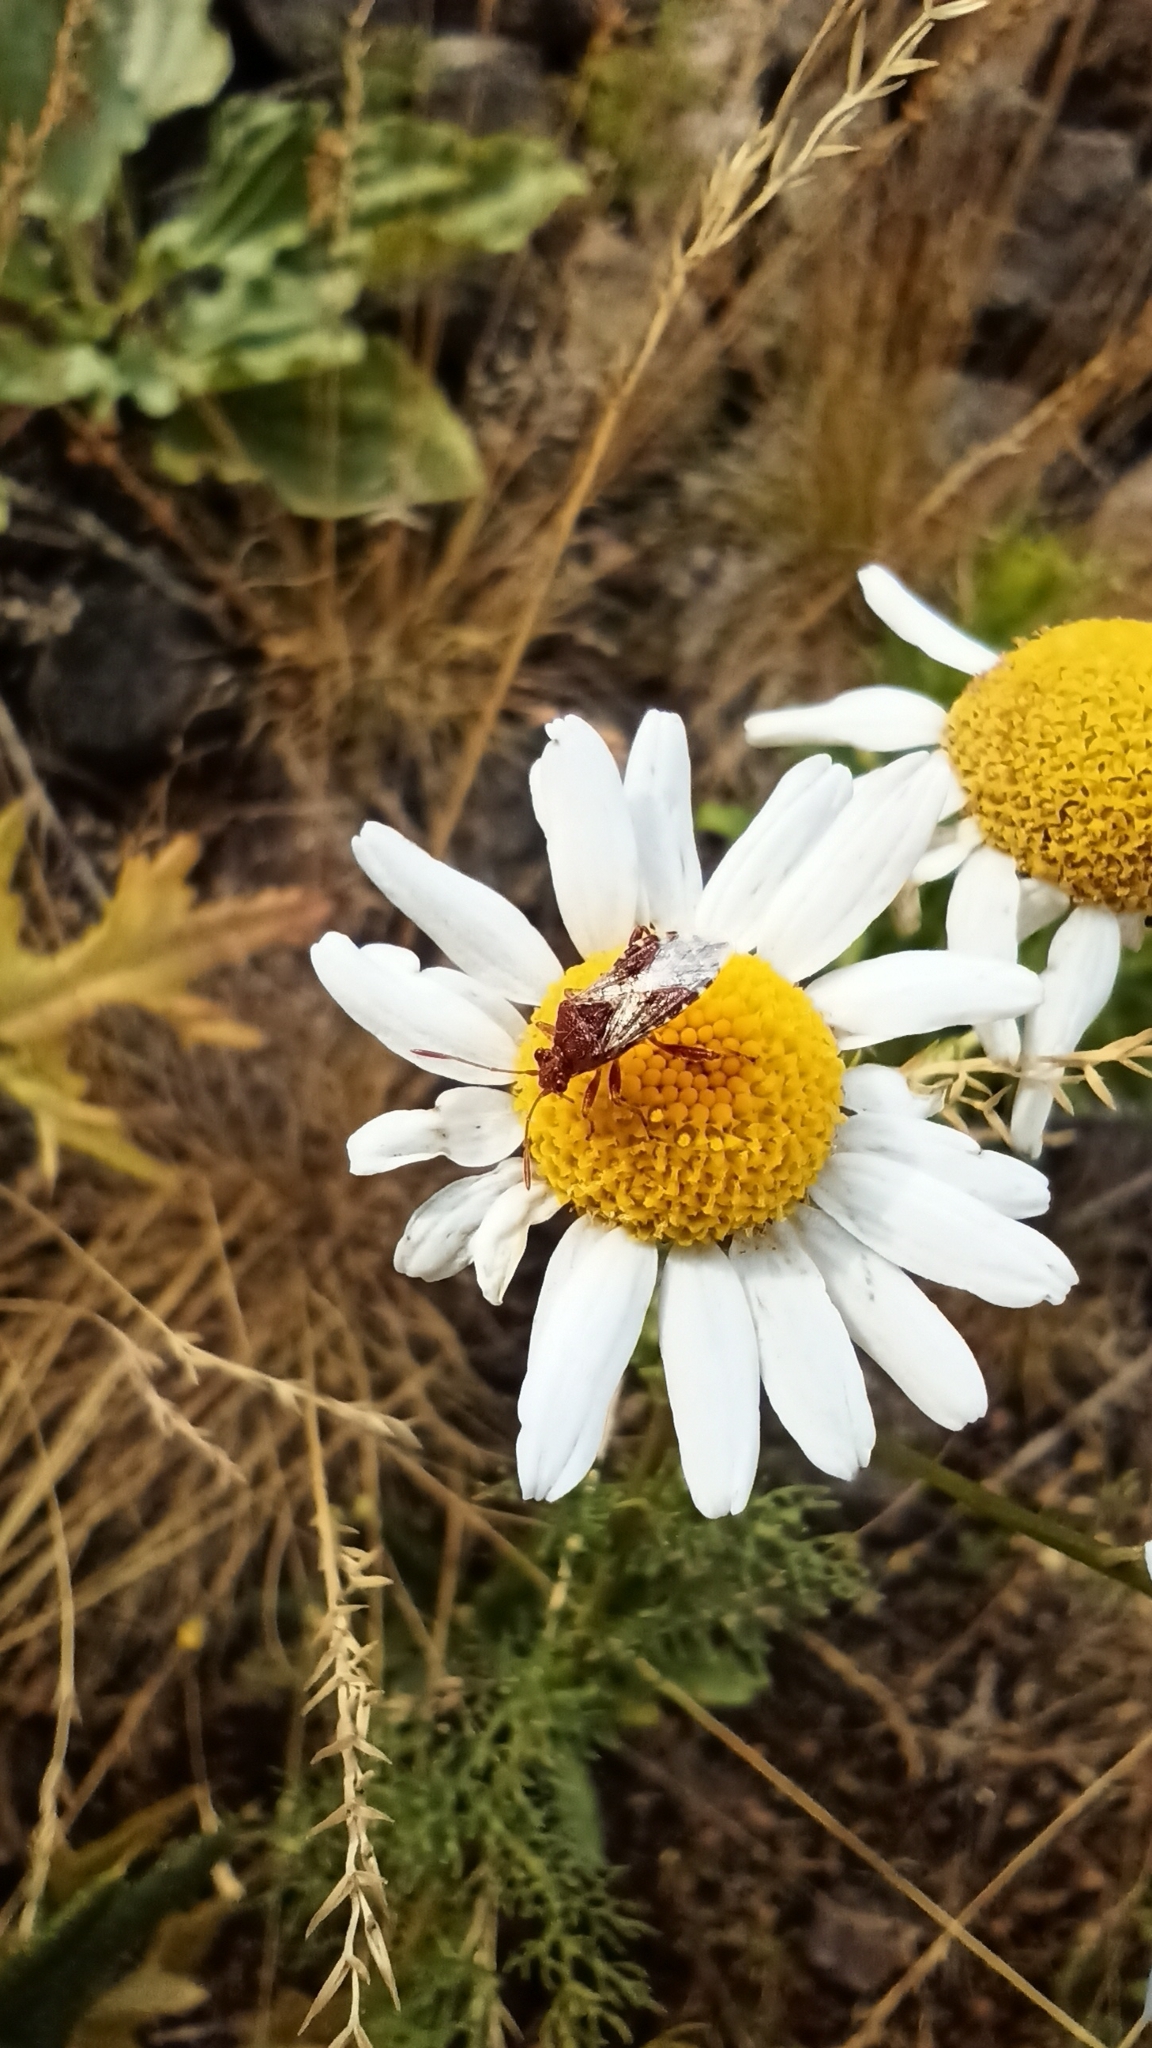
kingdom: Animalia
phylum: Arthropoda
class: Insecta
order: Hemiptera
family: Rhopalidae
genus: Rhopalus
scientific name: Rhopalus subrufus
